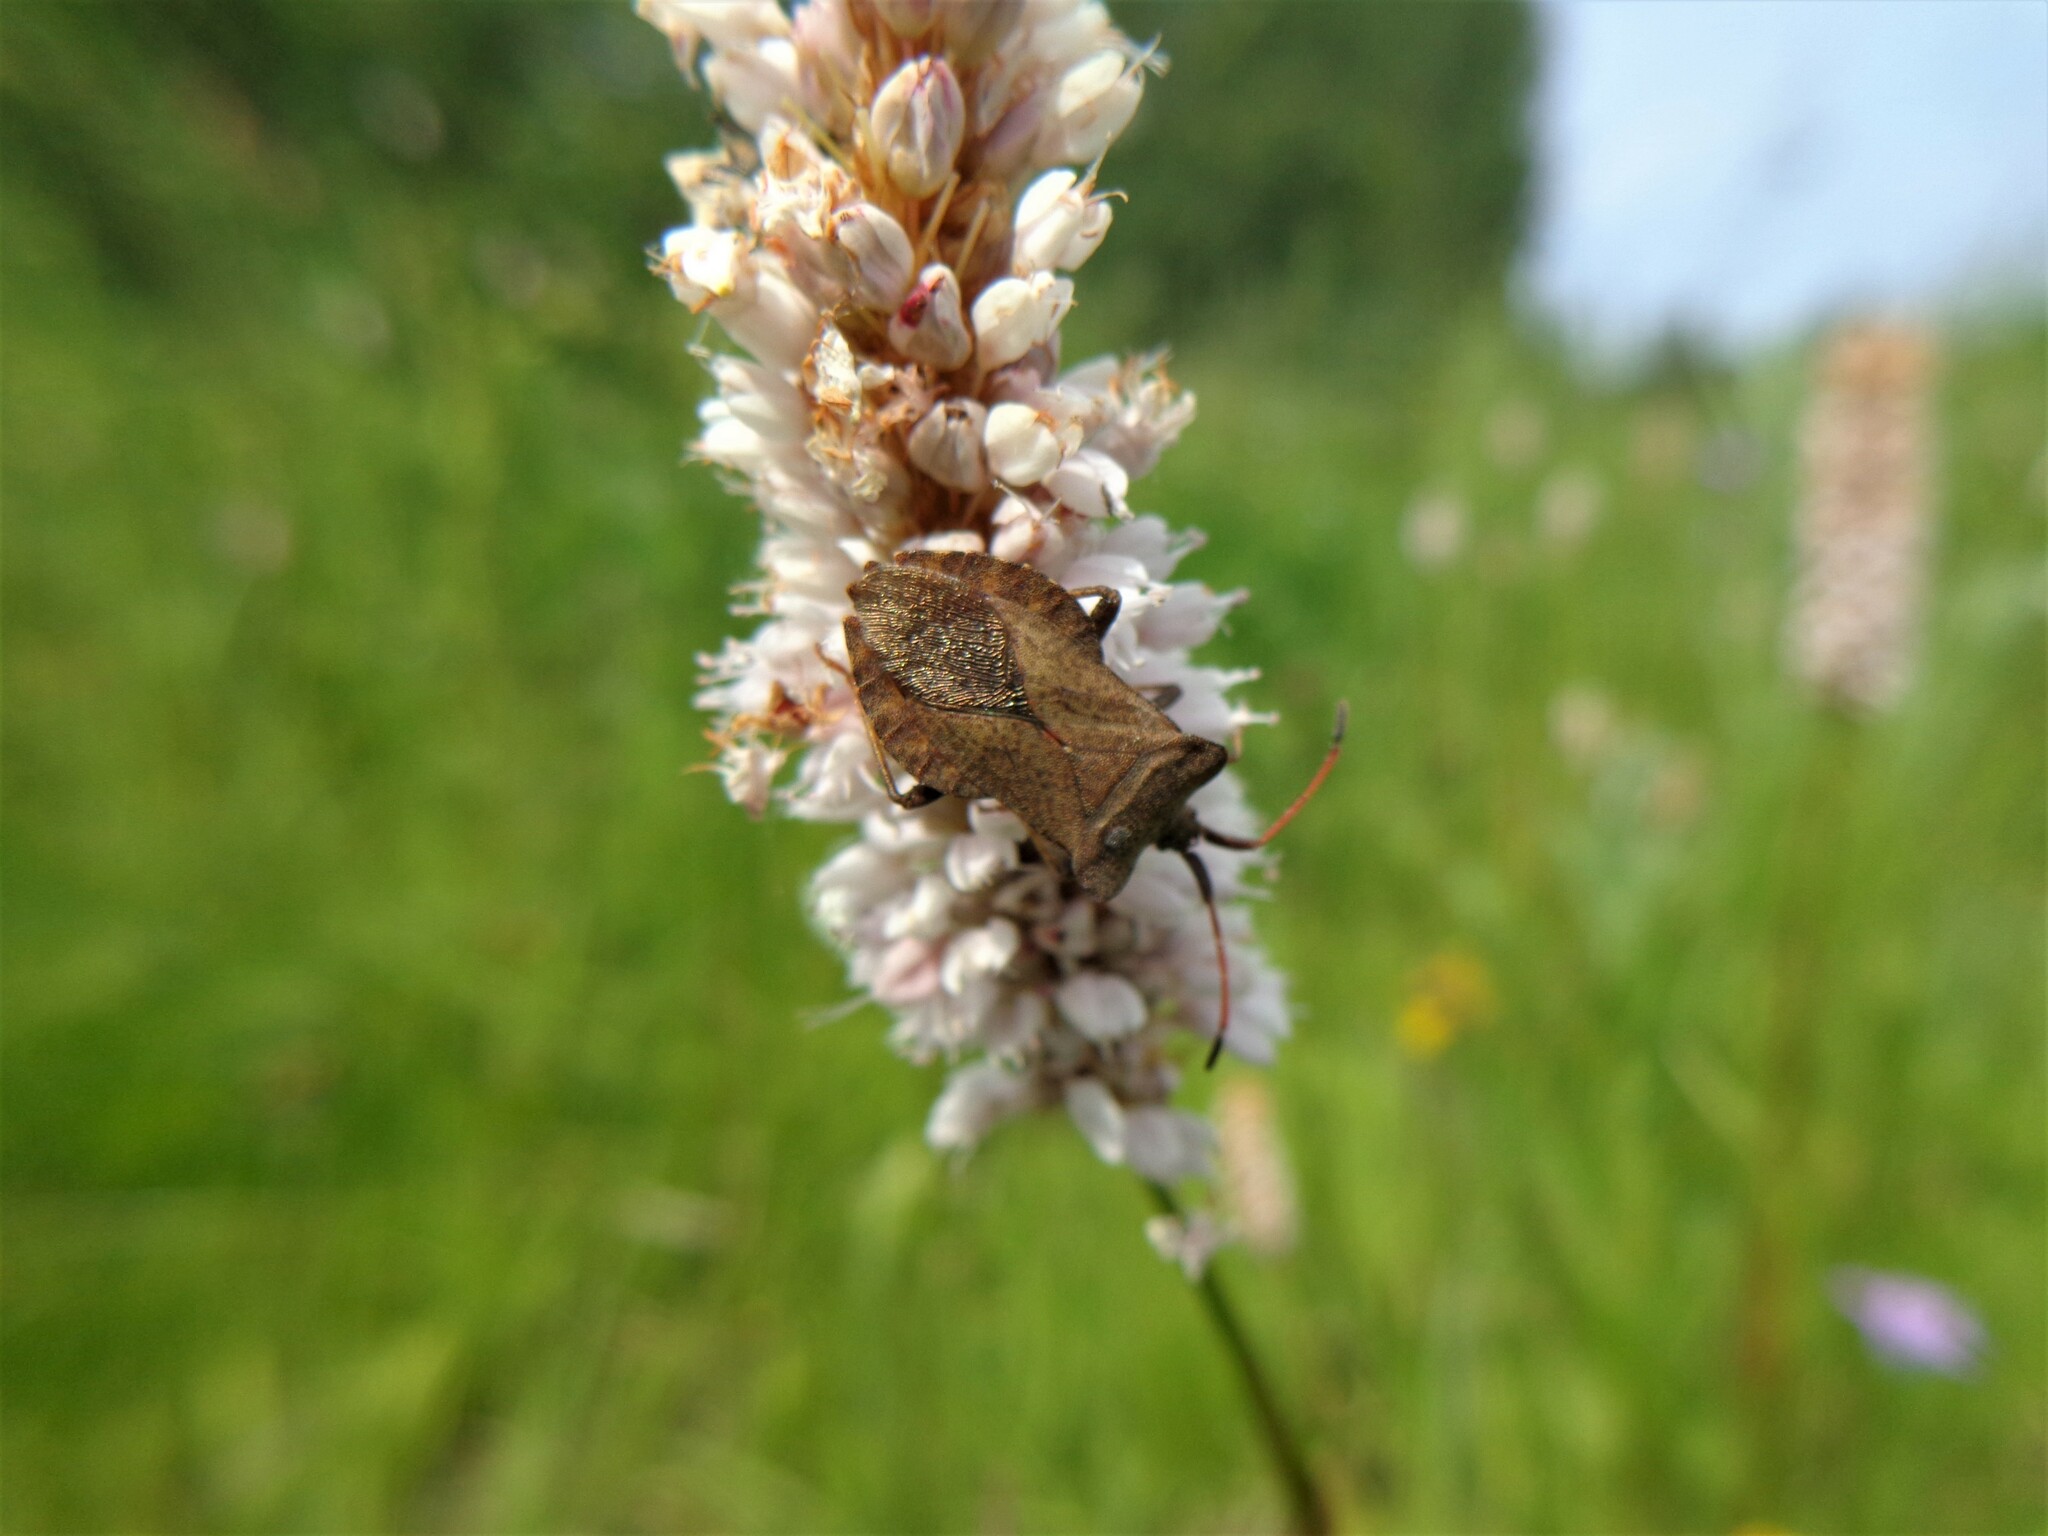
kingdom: Animalia
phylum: Arthropoda
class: Insecta
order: Hemiptera
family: Coreidae
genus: Coreus
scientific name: Coreus marginatus
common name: Dock bug
